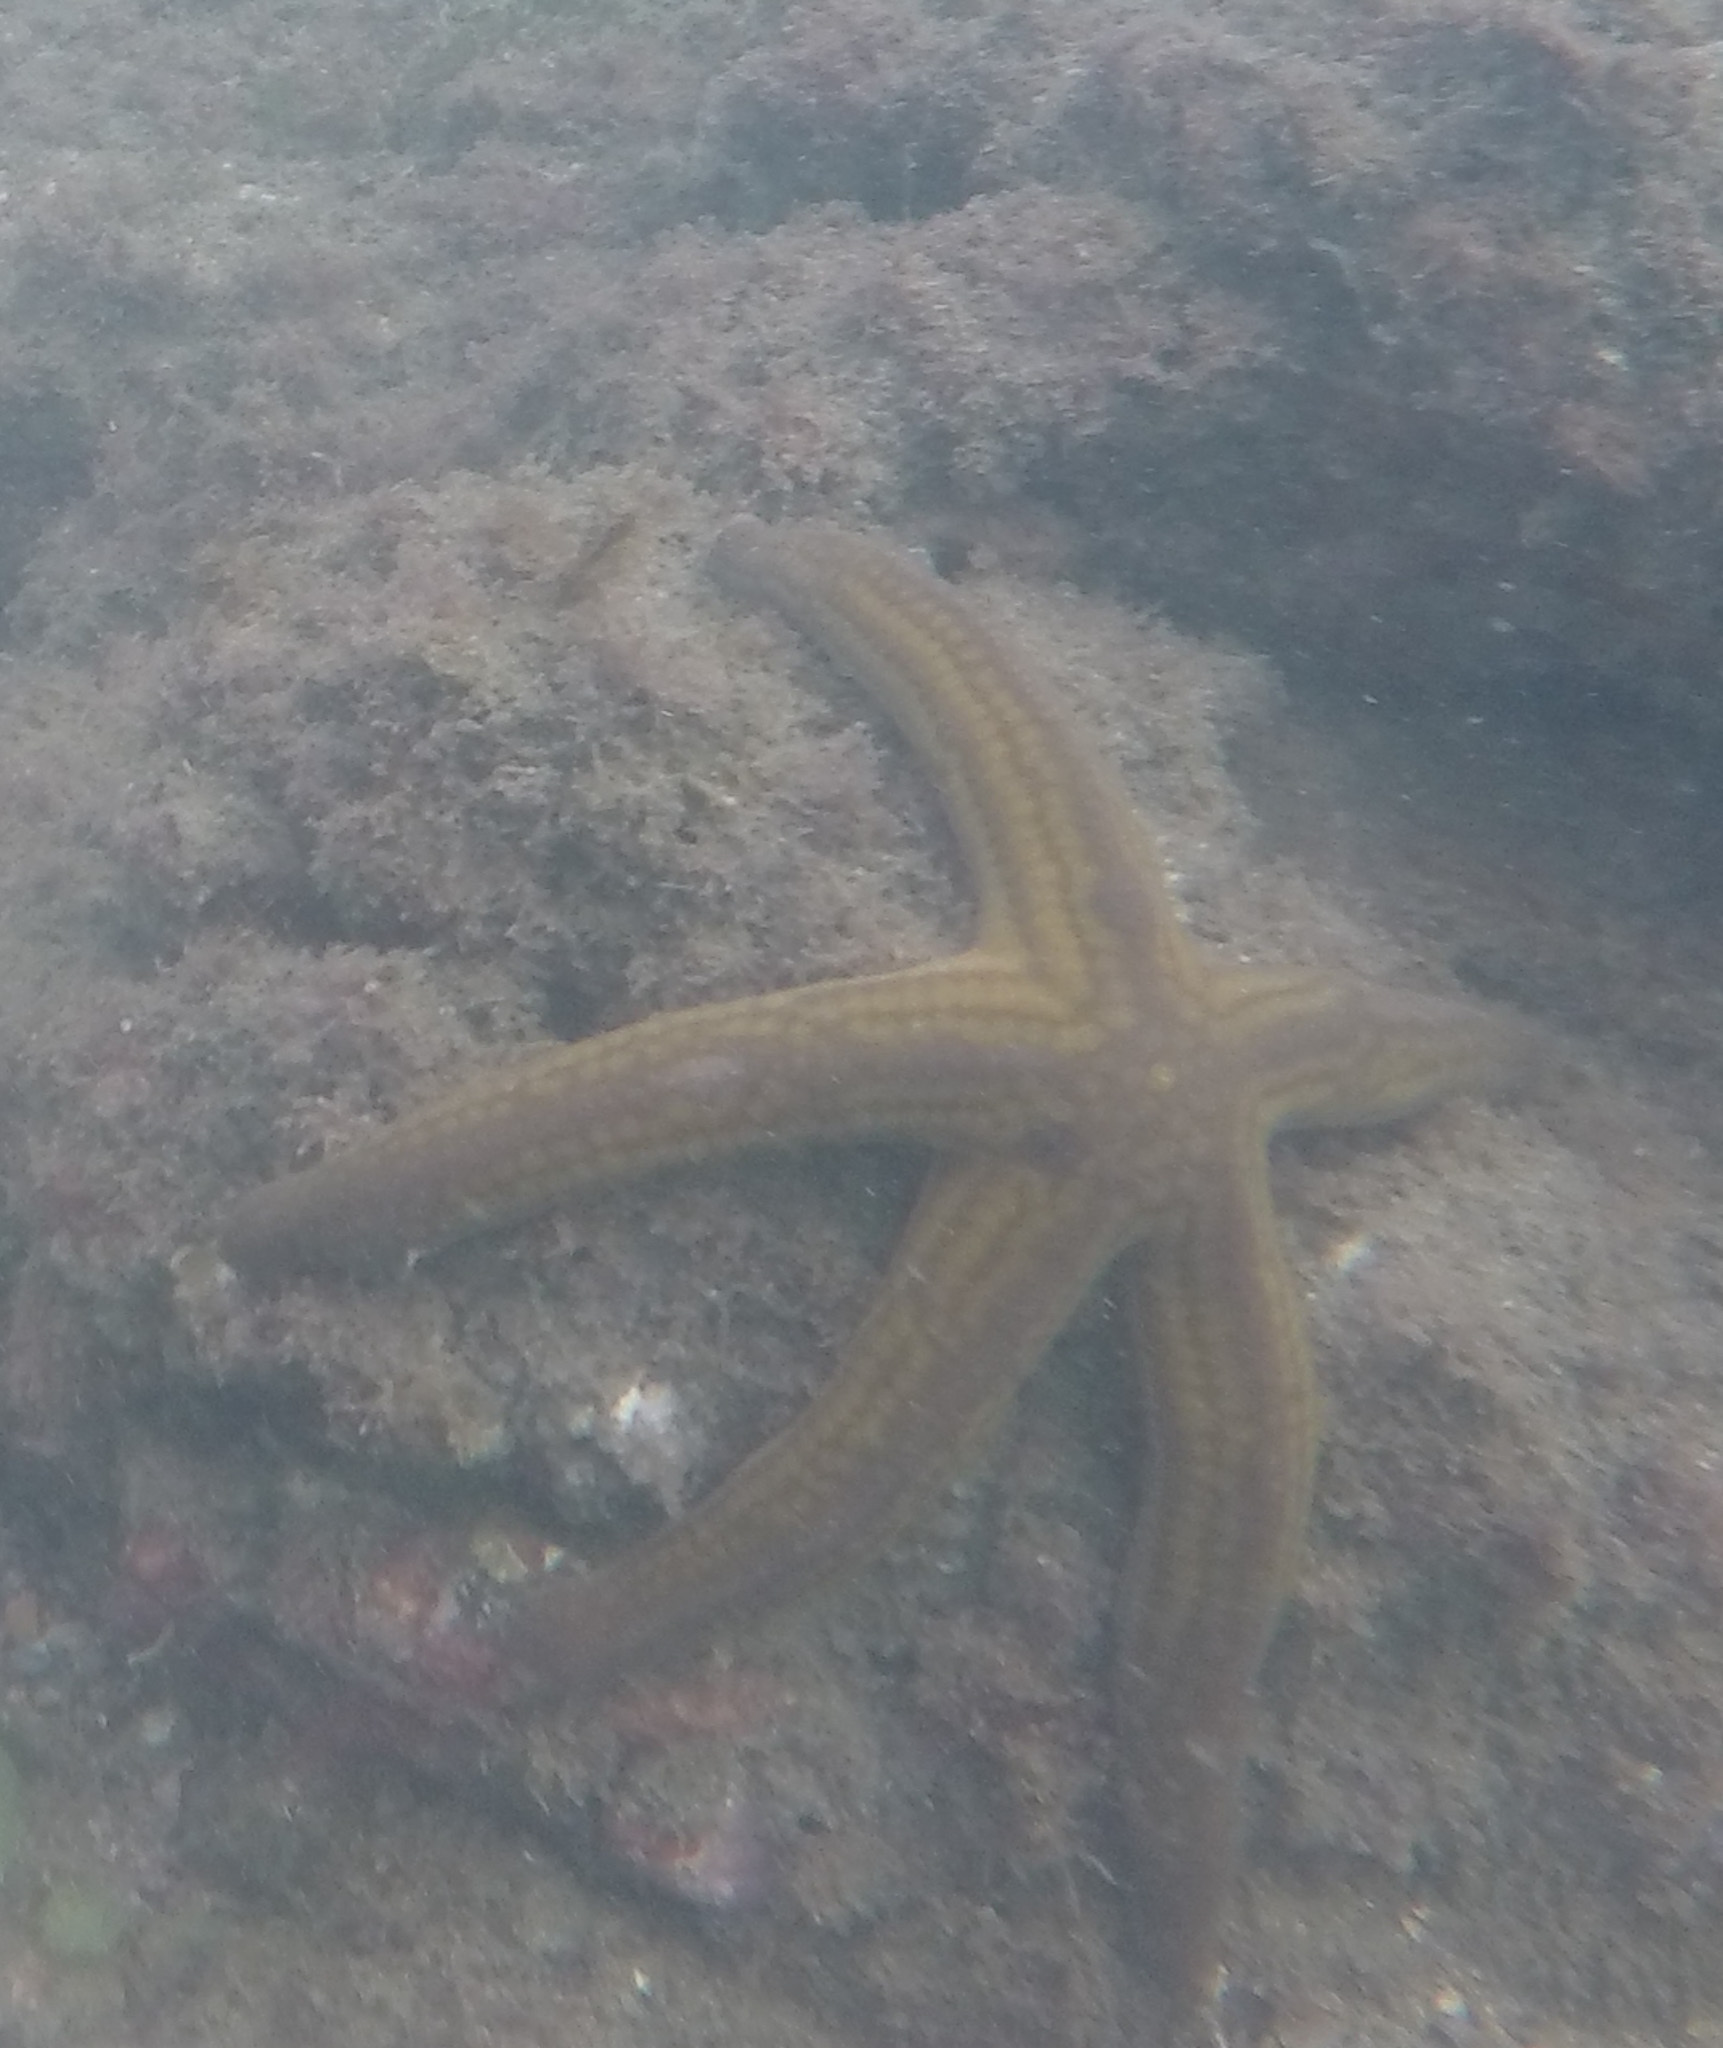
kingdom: Animalia
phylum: Echinodermata
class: Asteroidea
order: Valvatida
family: Ophidiasteridae
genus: Pharia
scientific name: Pharia pyramidata
